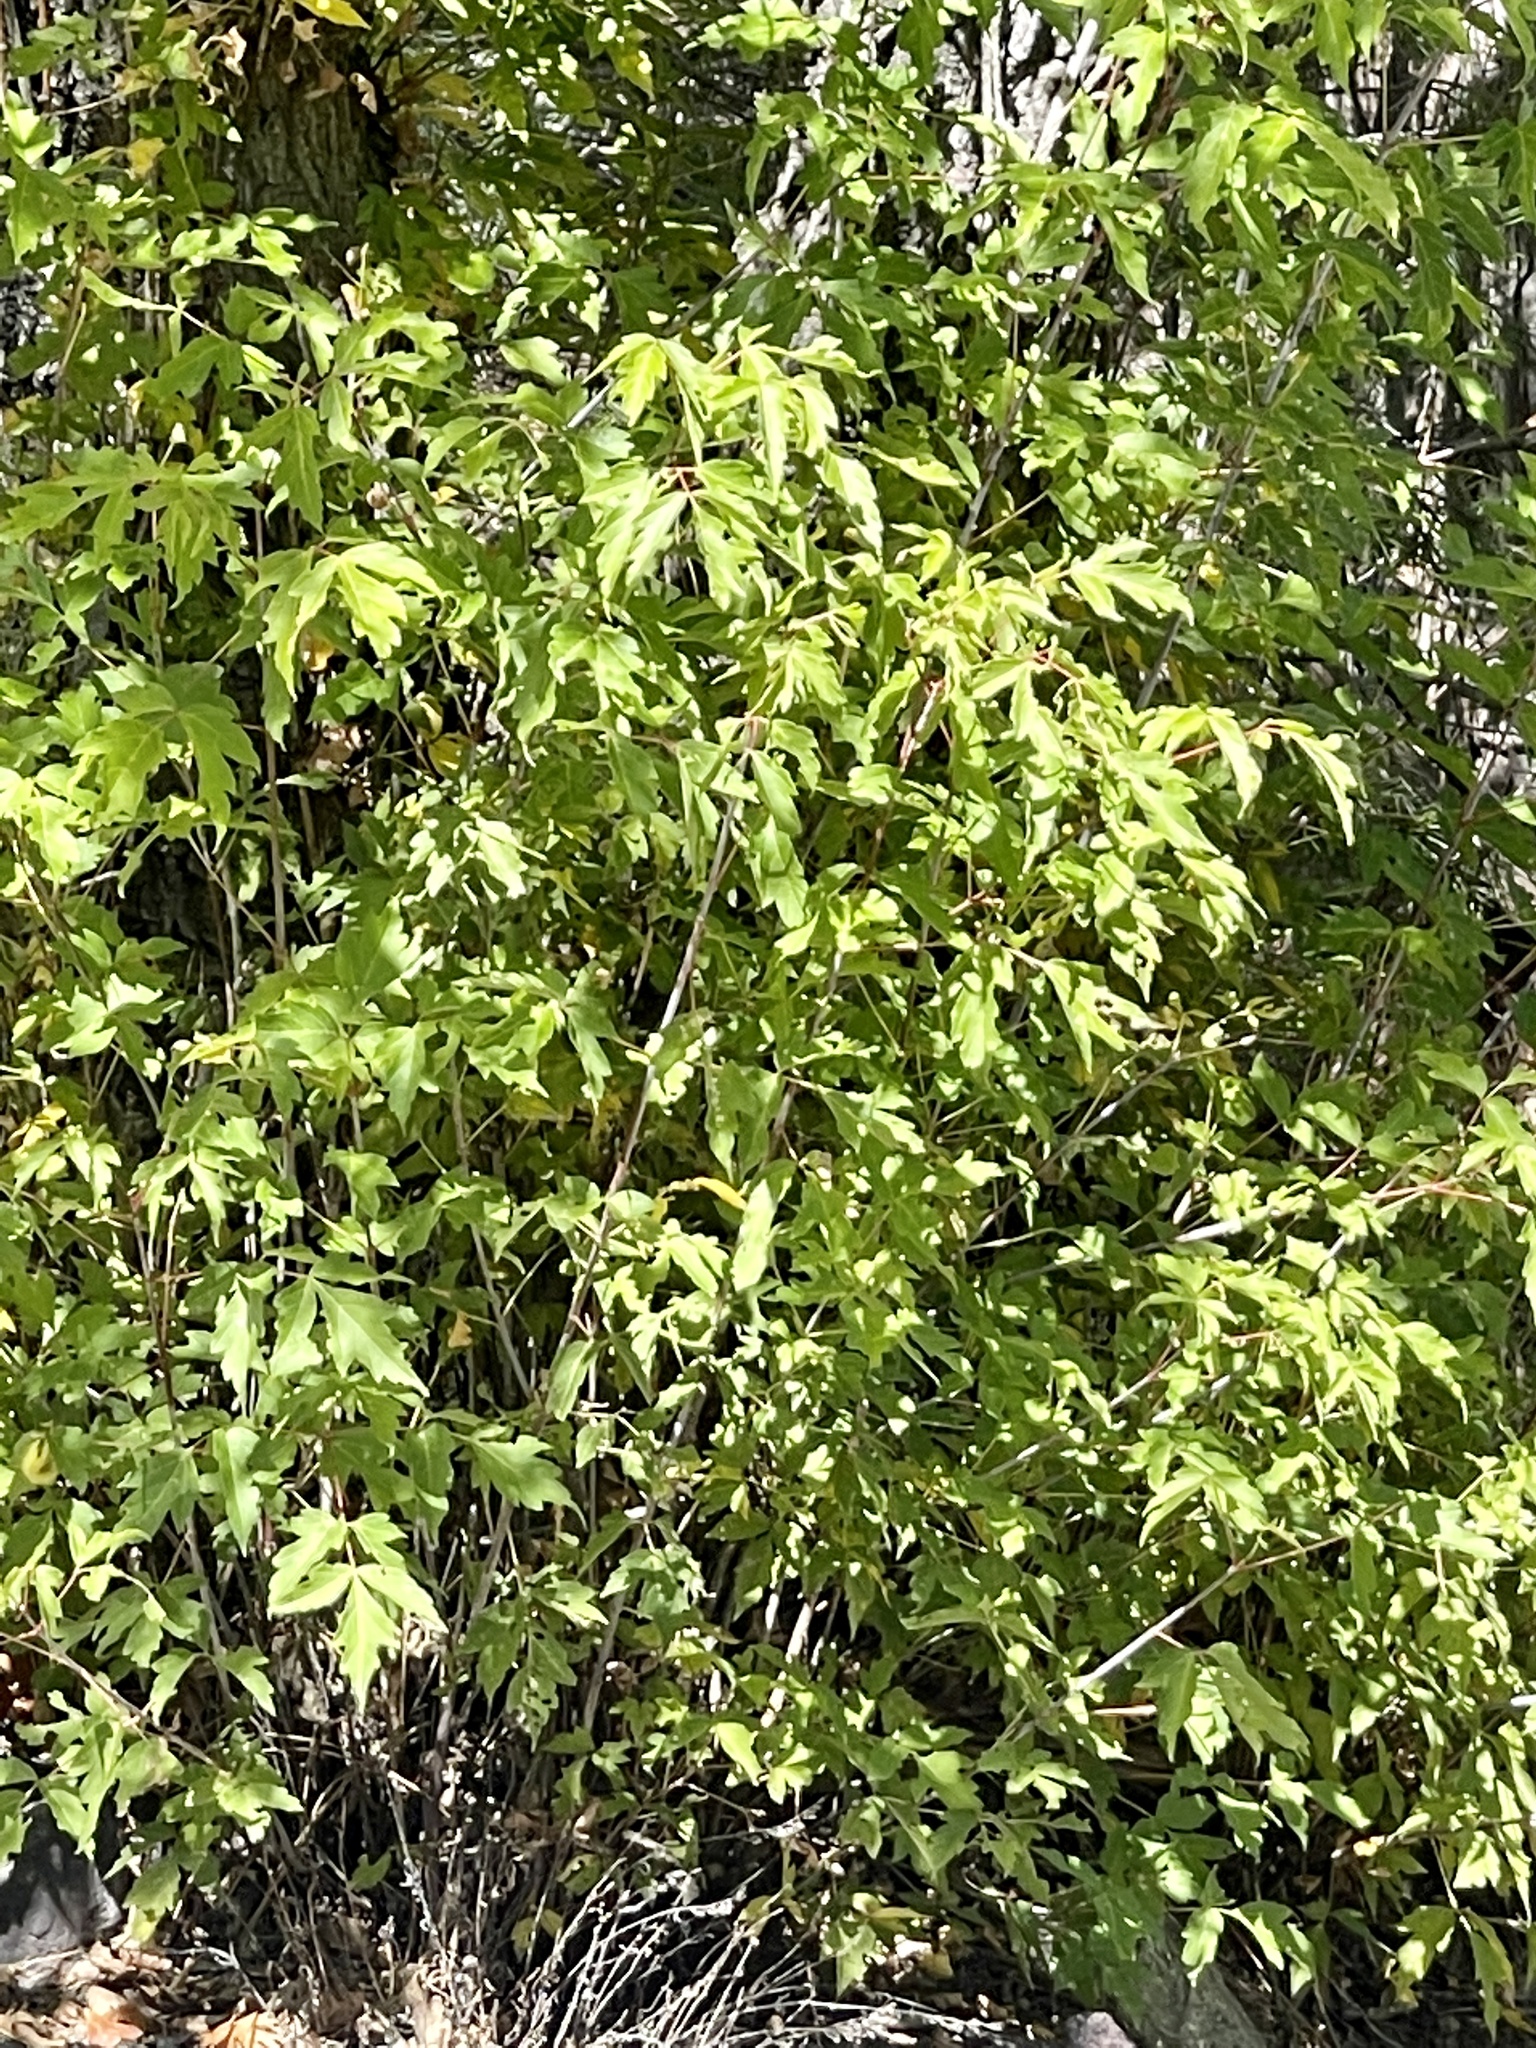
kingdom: Plantae
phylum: Tracheophyta
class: Magnoliopsida
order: Sapindales
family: Sapindaceae
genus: Acer
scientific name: Acer negundo
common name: Ashleaf maple
